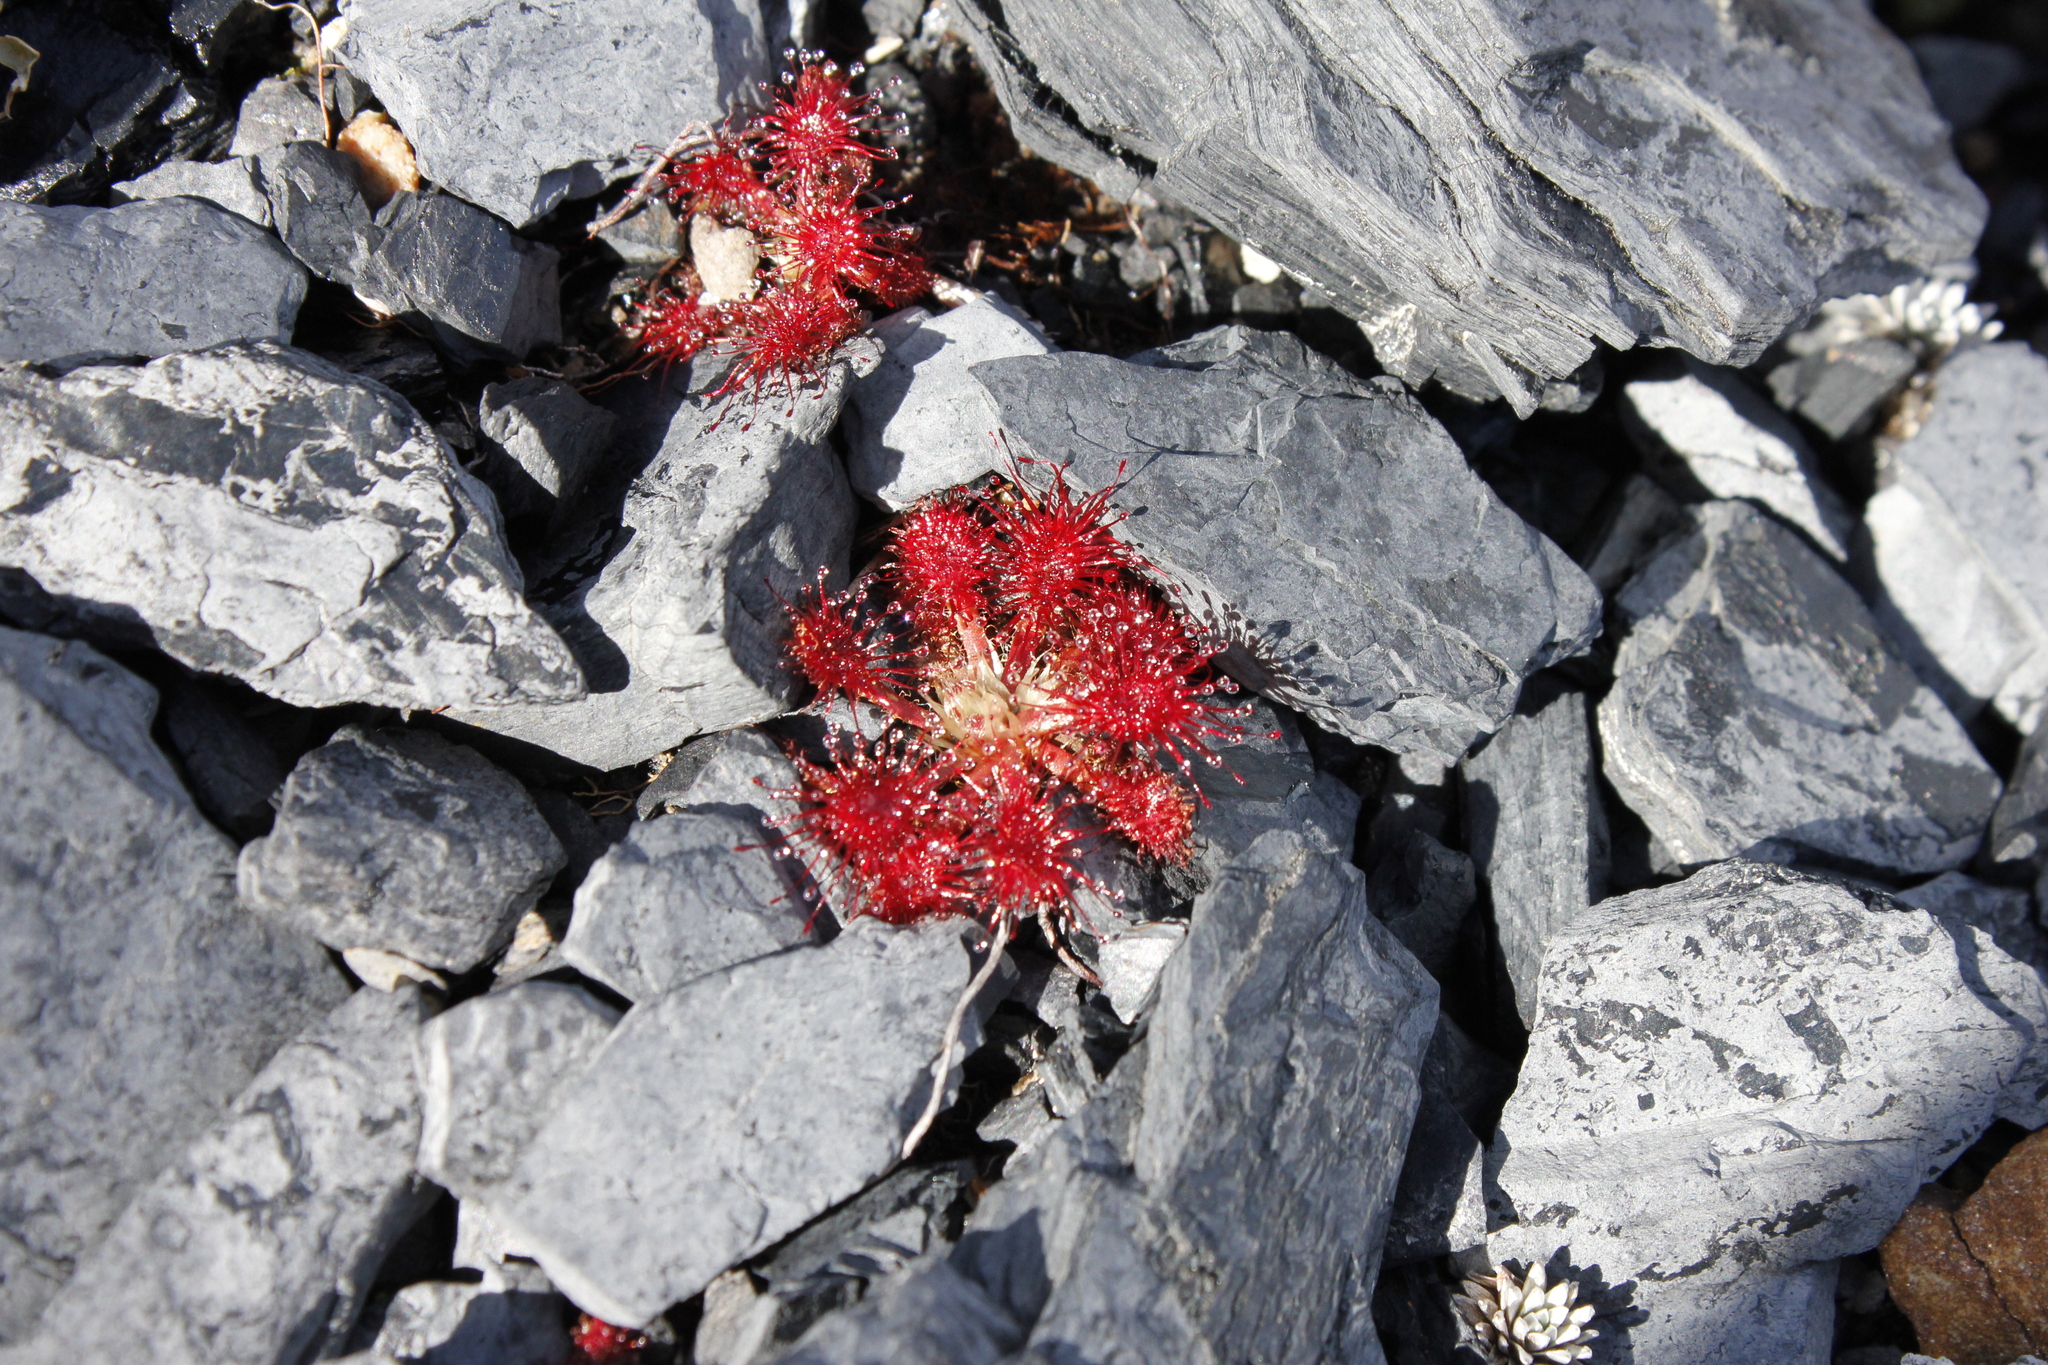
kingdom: Plantae
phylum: Tracheophyta
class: Magnoliopsida
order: Caryophyllales
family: Droseraceae
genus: Drosera
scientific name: Drosera spatulata
